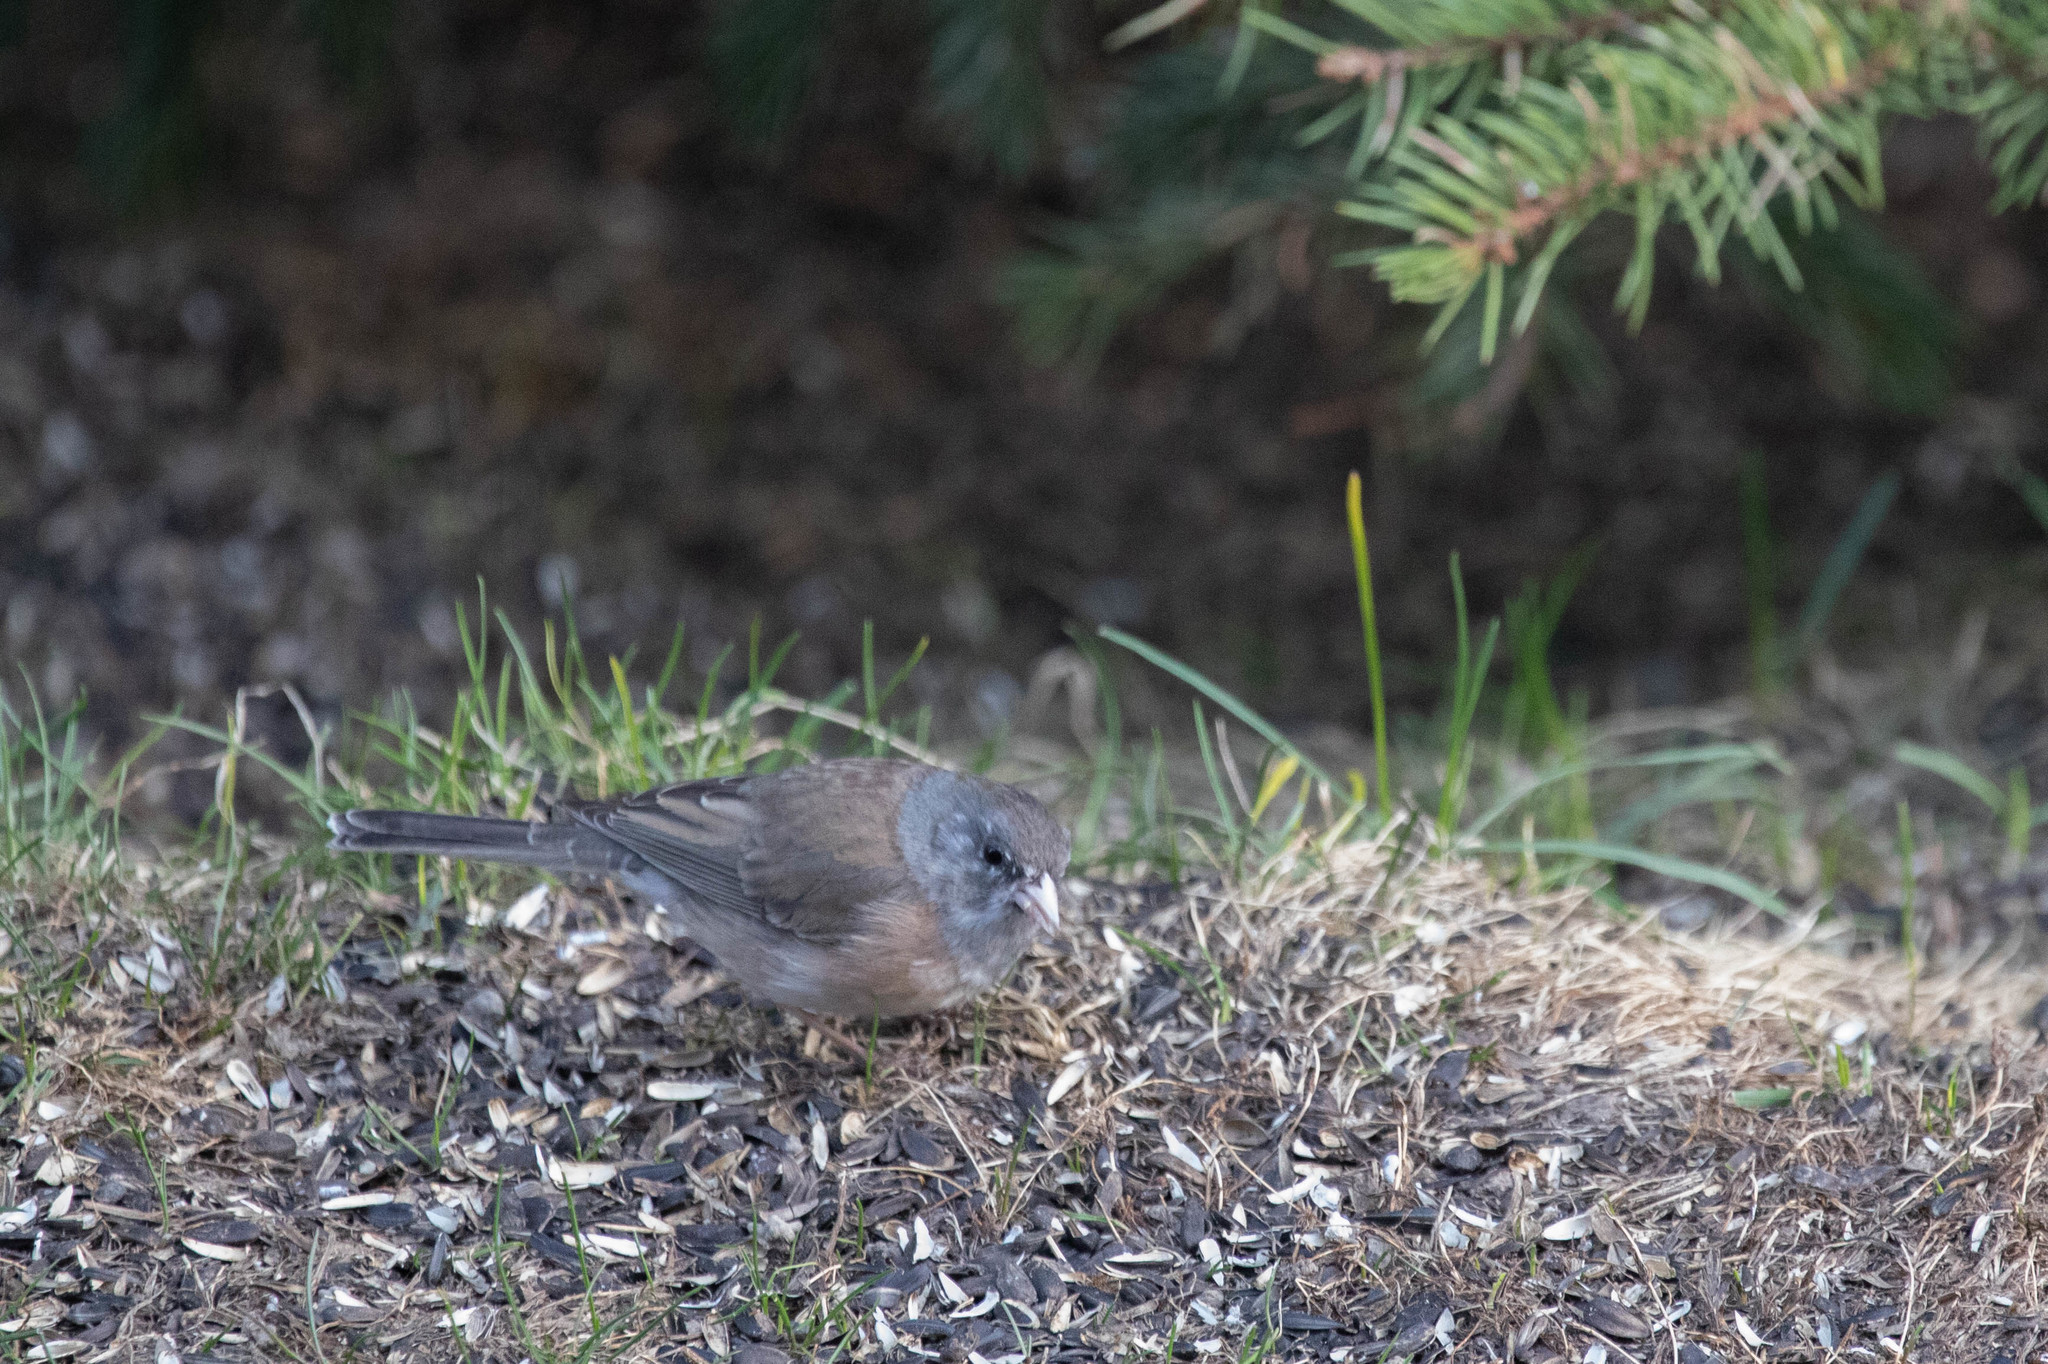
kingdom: Animalia
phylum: Chordata
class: Aves
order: Passeriformes
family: Passerellidae
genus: Junco
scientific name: Junco hyemalis
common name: Dark-eyed junco
